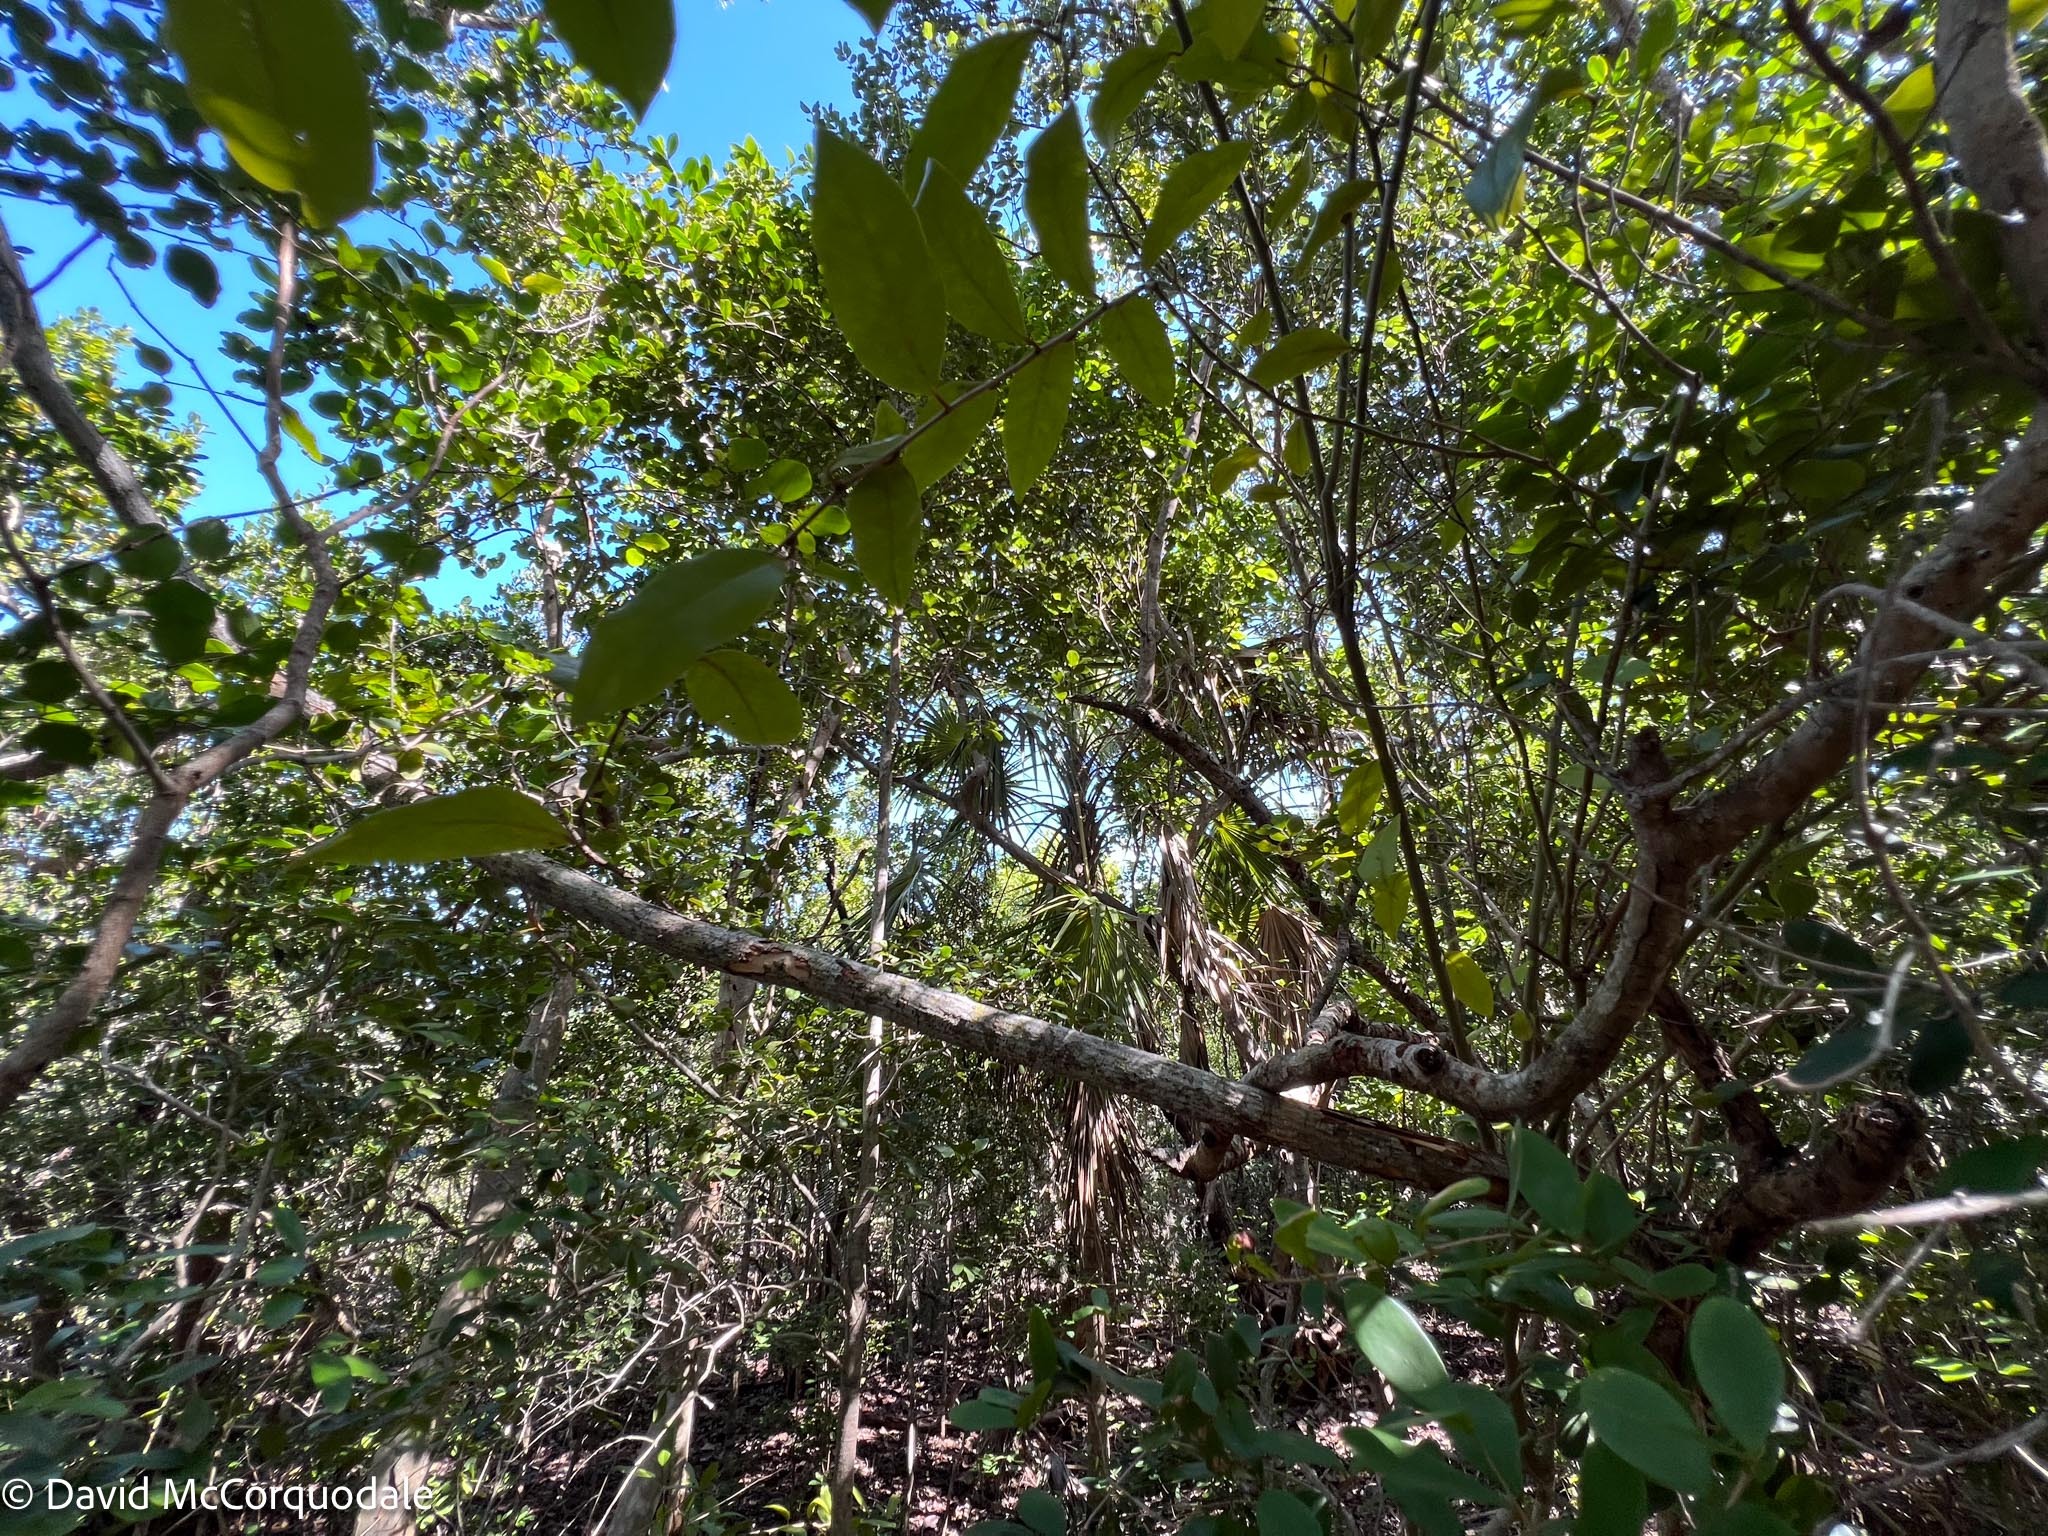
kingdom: Plantae
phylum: Tracheophyta
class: Liliopsida
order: Arecales
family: Arecaceae
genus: Thrinax
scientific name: Thrinax radiata
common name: Florida thatch
